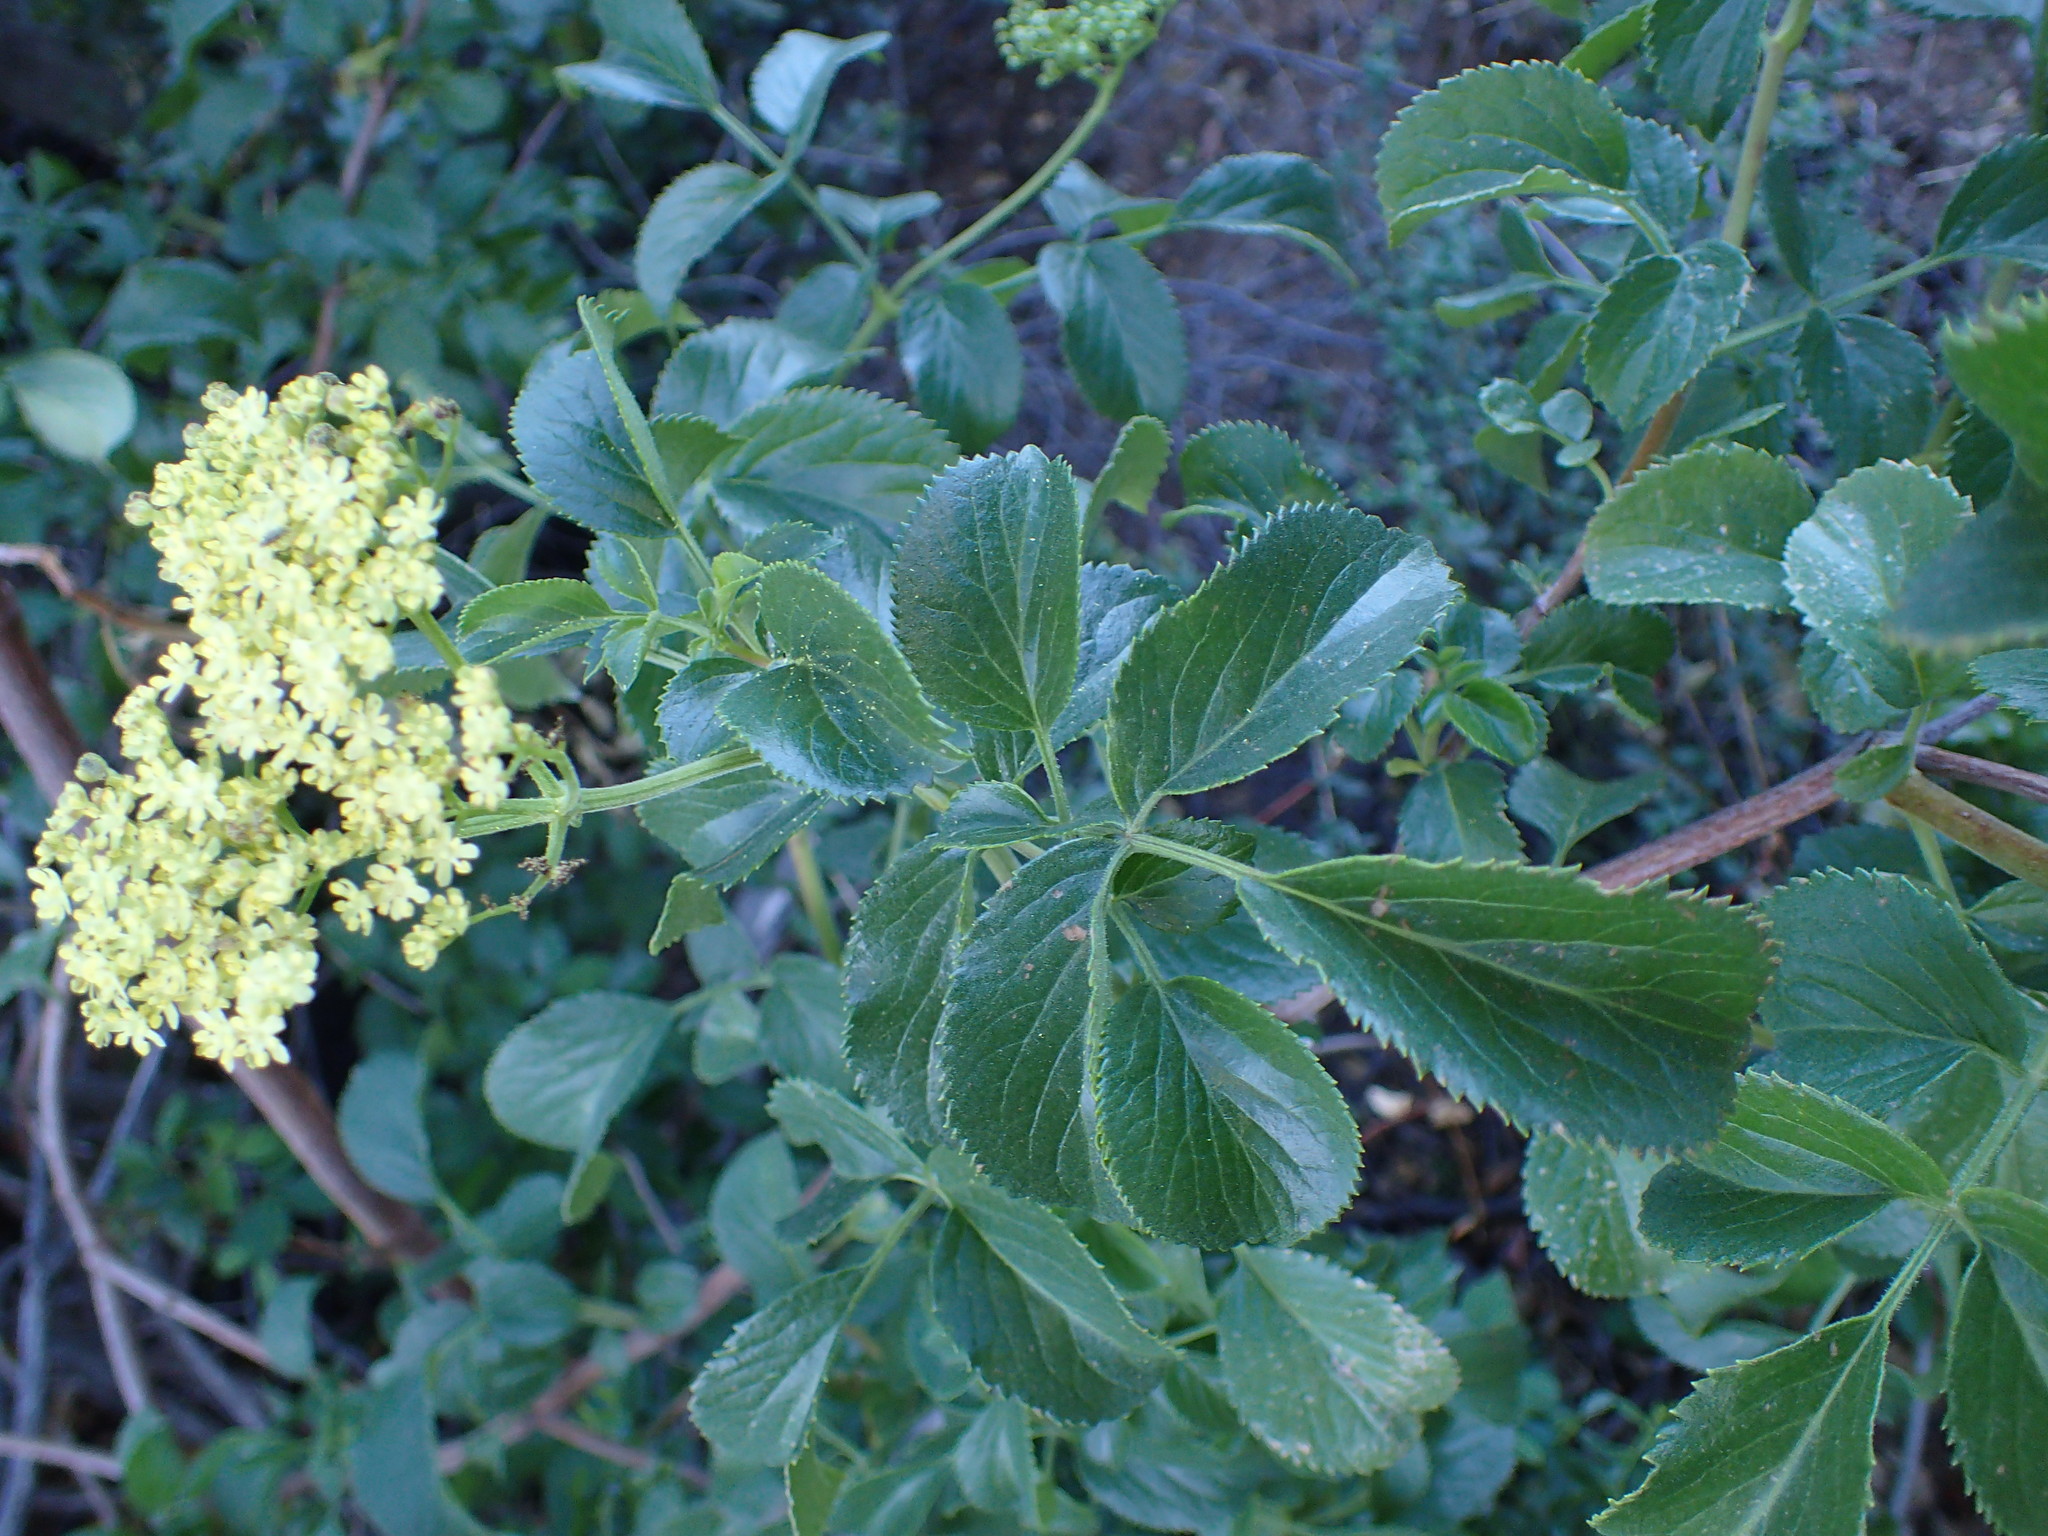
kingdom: Plantae
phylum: Tracheophyta
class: Magnoliopsida
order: Dipsacales
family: Viburnaceae
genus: Sambucus
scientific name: Sambucus cerulea
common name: Blue elder
